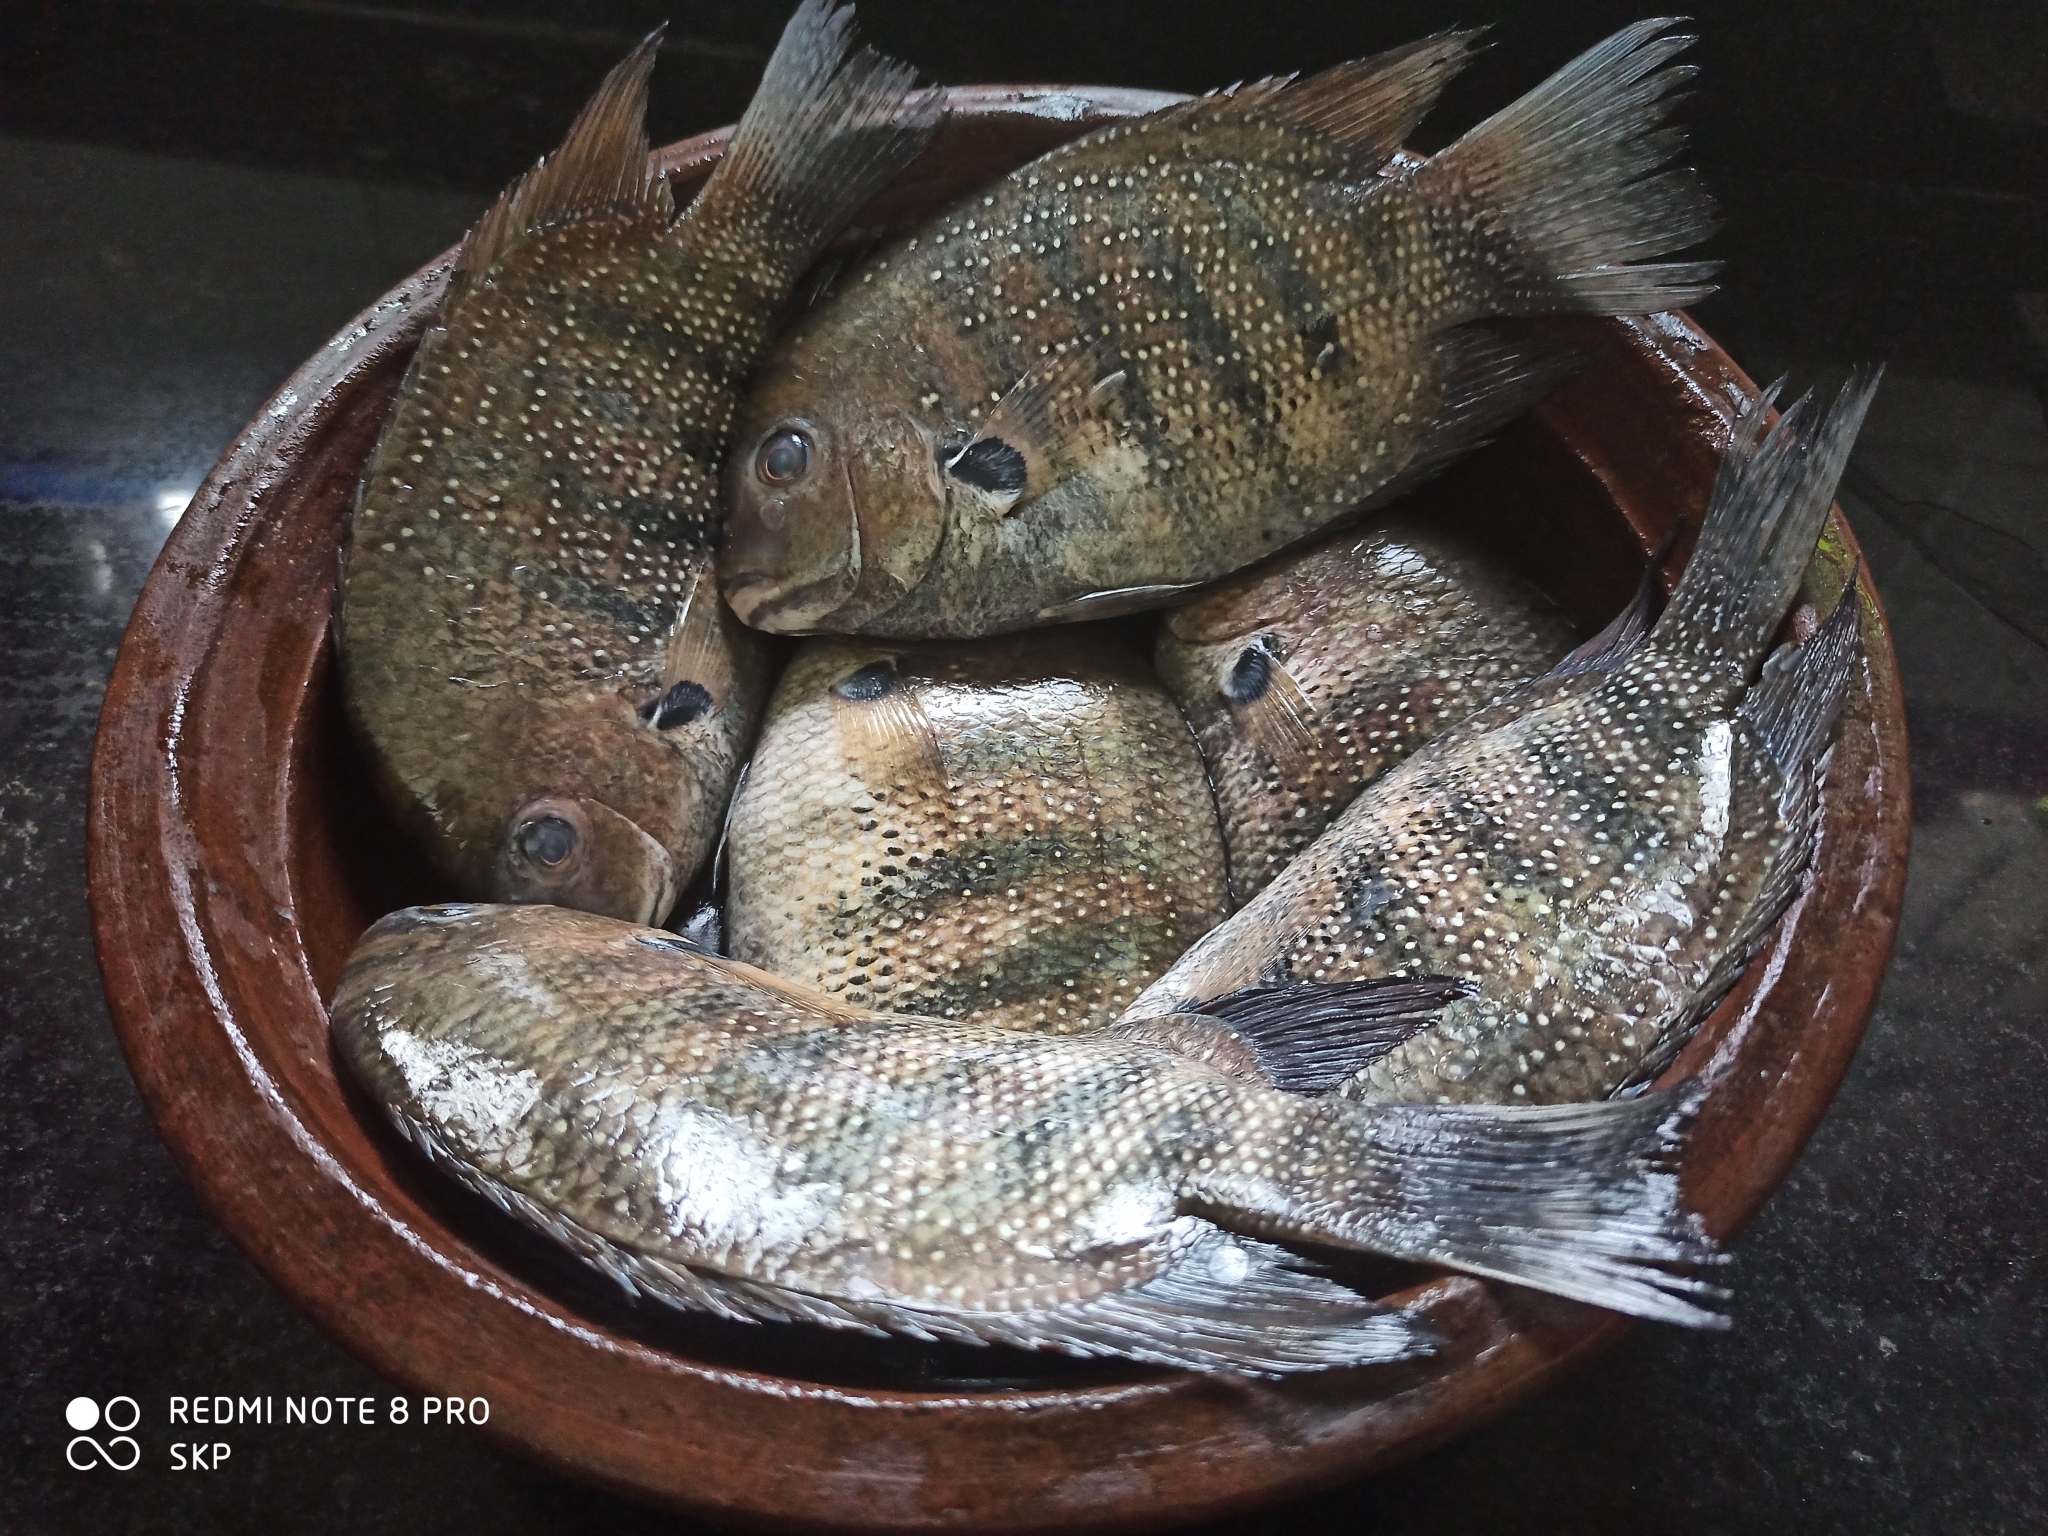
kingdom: Animalia
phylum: Chordata
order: Perciformes
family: Cichlidae
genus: Etroplus
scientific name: Etroplus suratensis
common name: Green chromide
